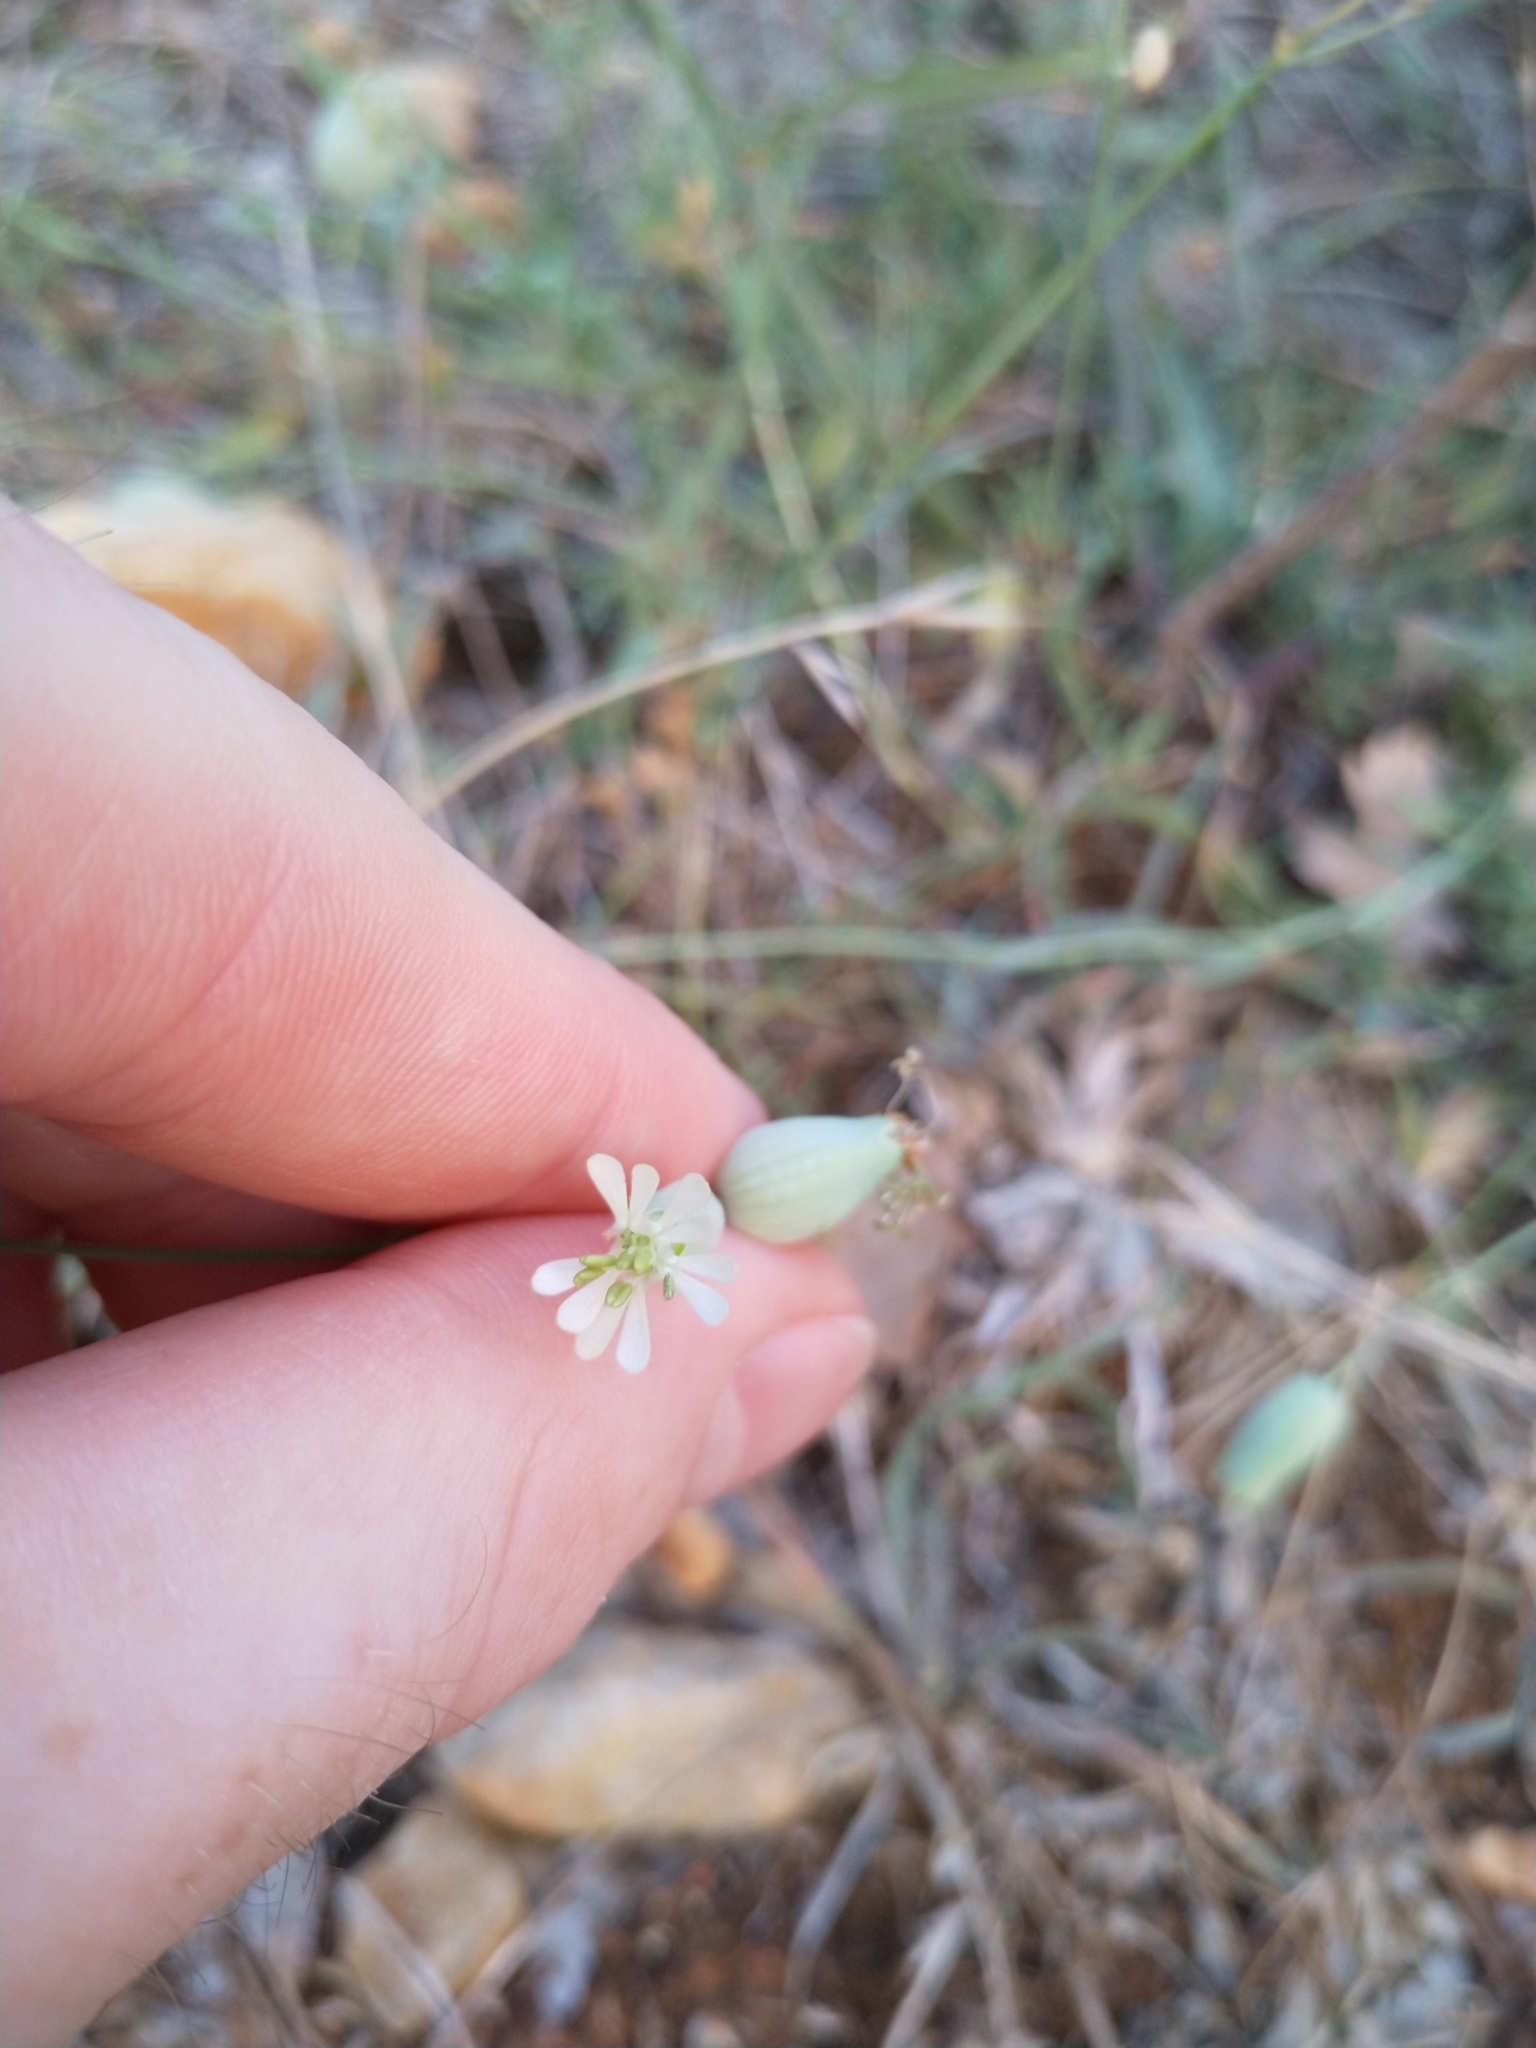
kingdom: Plantae
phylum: Tracheophyta
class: Magnoliopsida
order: Caryophyllales
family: Caryophyllaceae
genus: Silene
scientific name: Silene vulgaris
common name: Bladder campion
